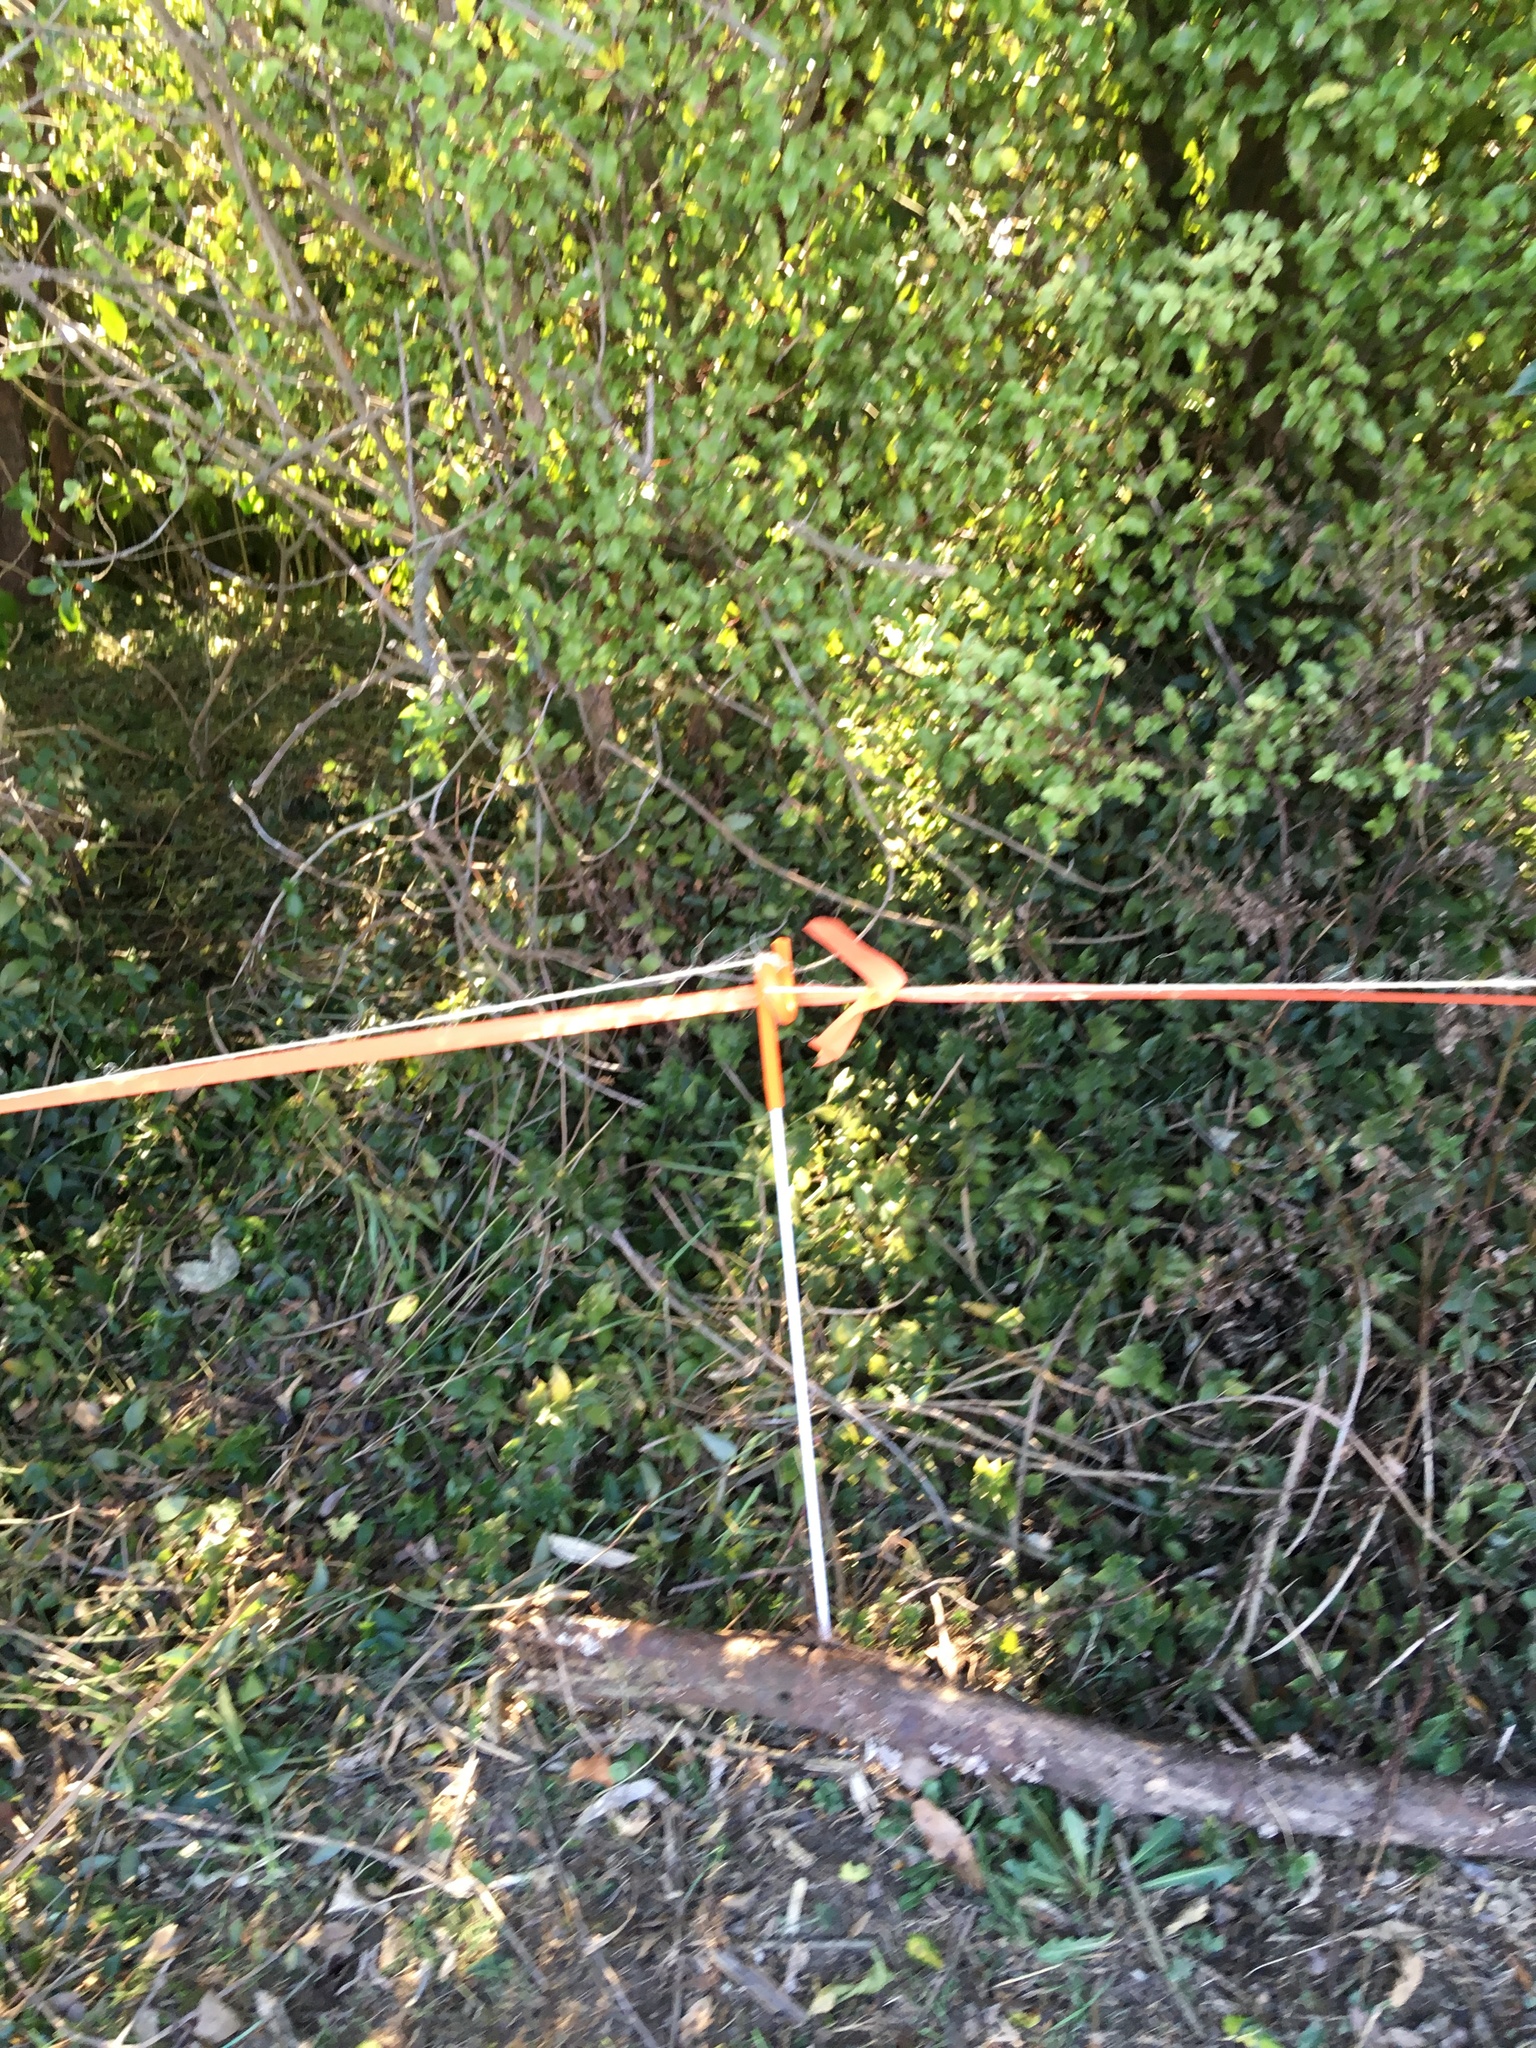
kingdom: Plantae
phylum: Tracheophyta
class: Magnoliopsida
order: Ericales
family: Primulaceae
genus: Myrsine
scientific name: Myrsine australis
